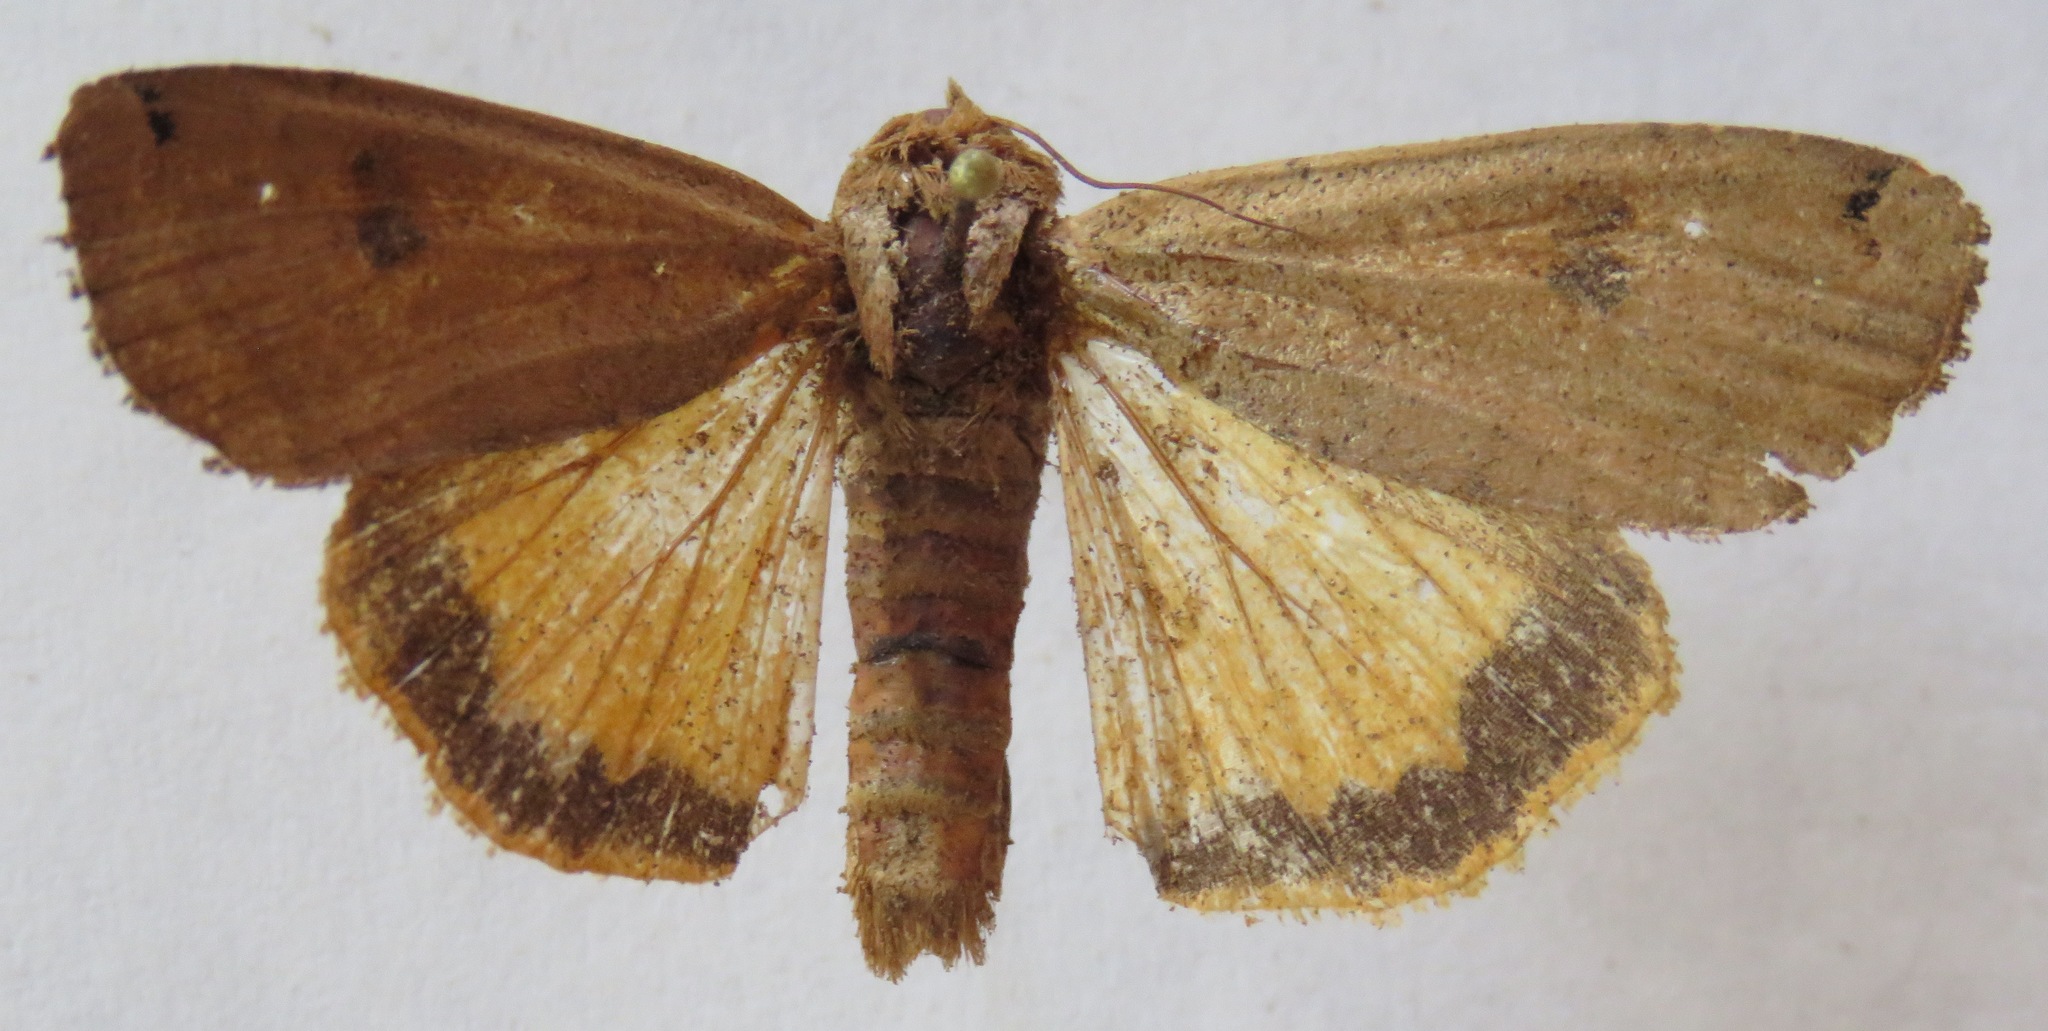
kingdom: Animalia
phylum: Arthropoda
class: Insecta
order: Lepidoptera
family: Noctuidae
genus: Noctua
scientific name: Noctua pronuba
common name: Large yellow underwing
